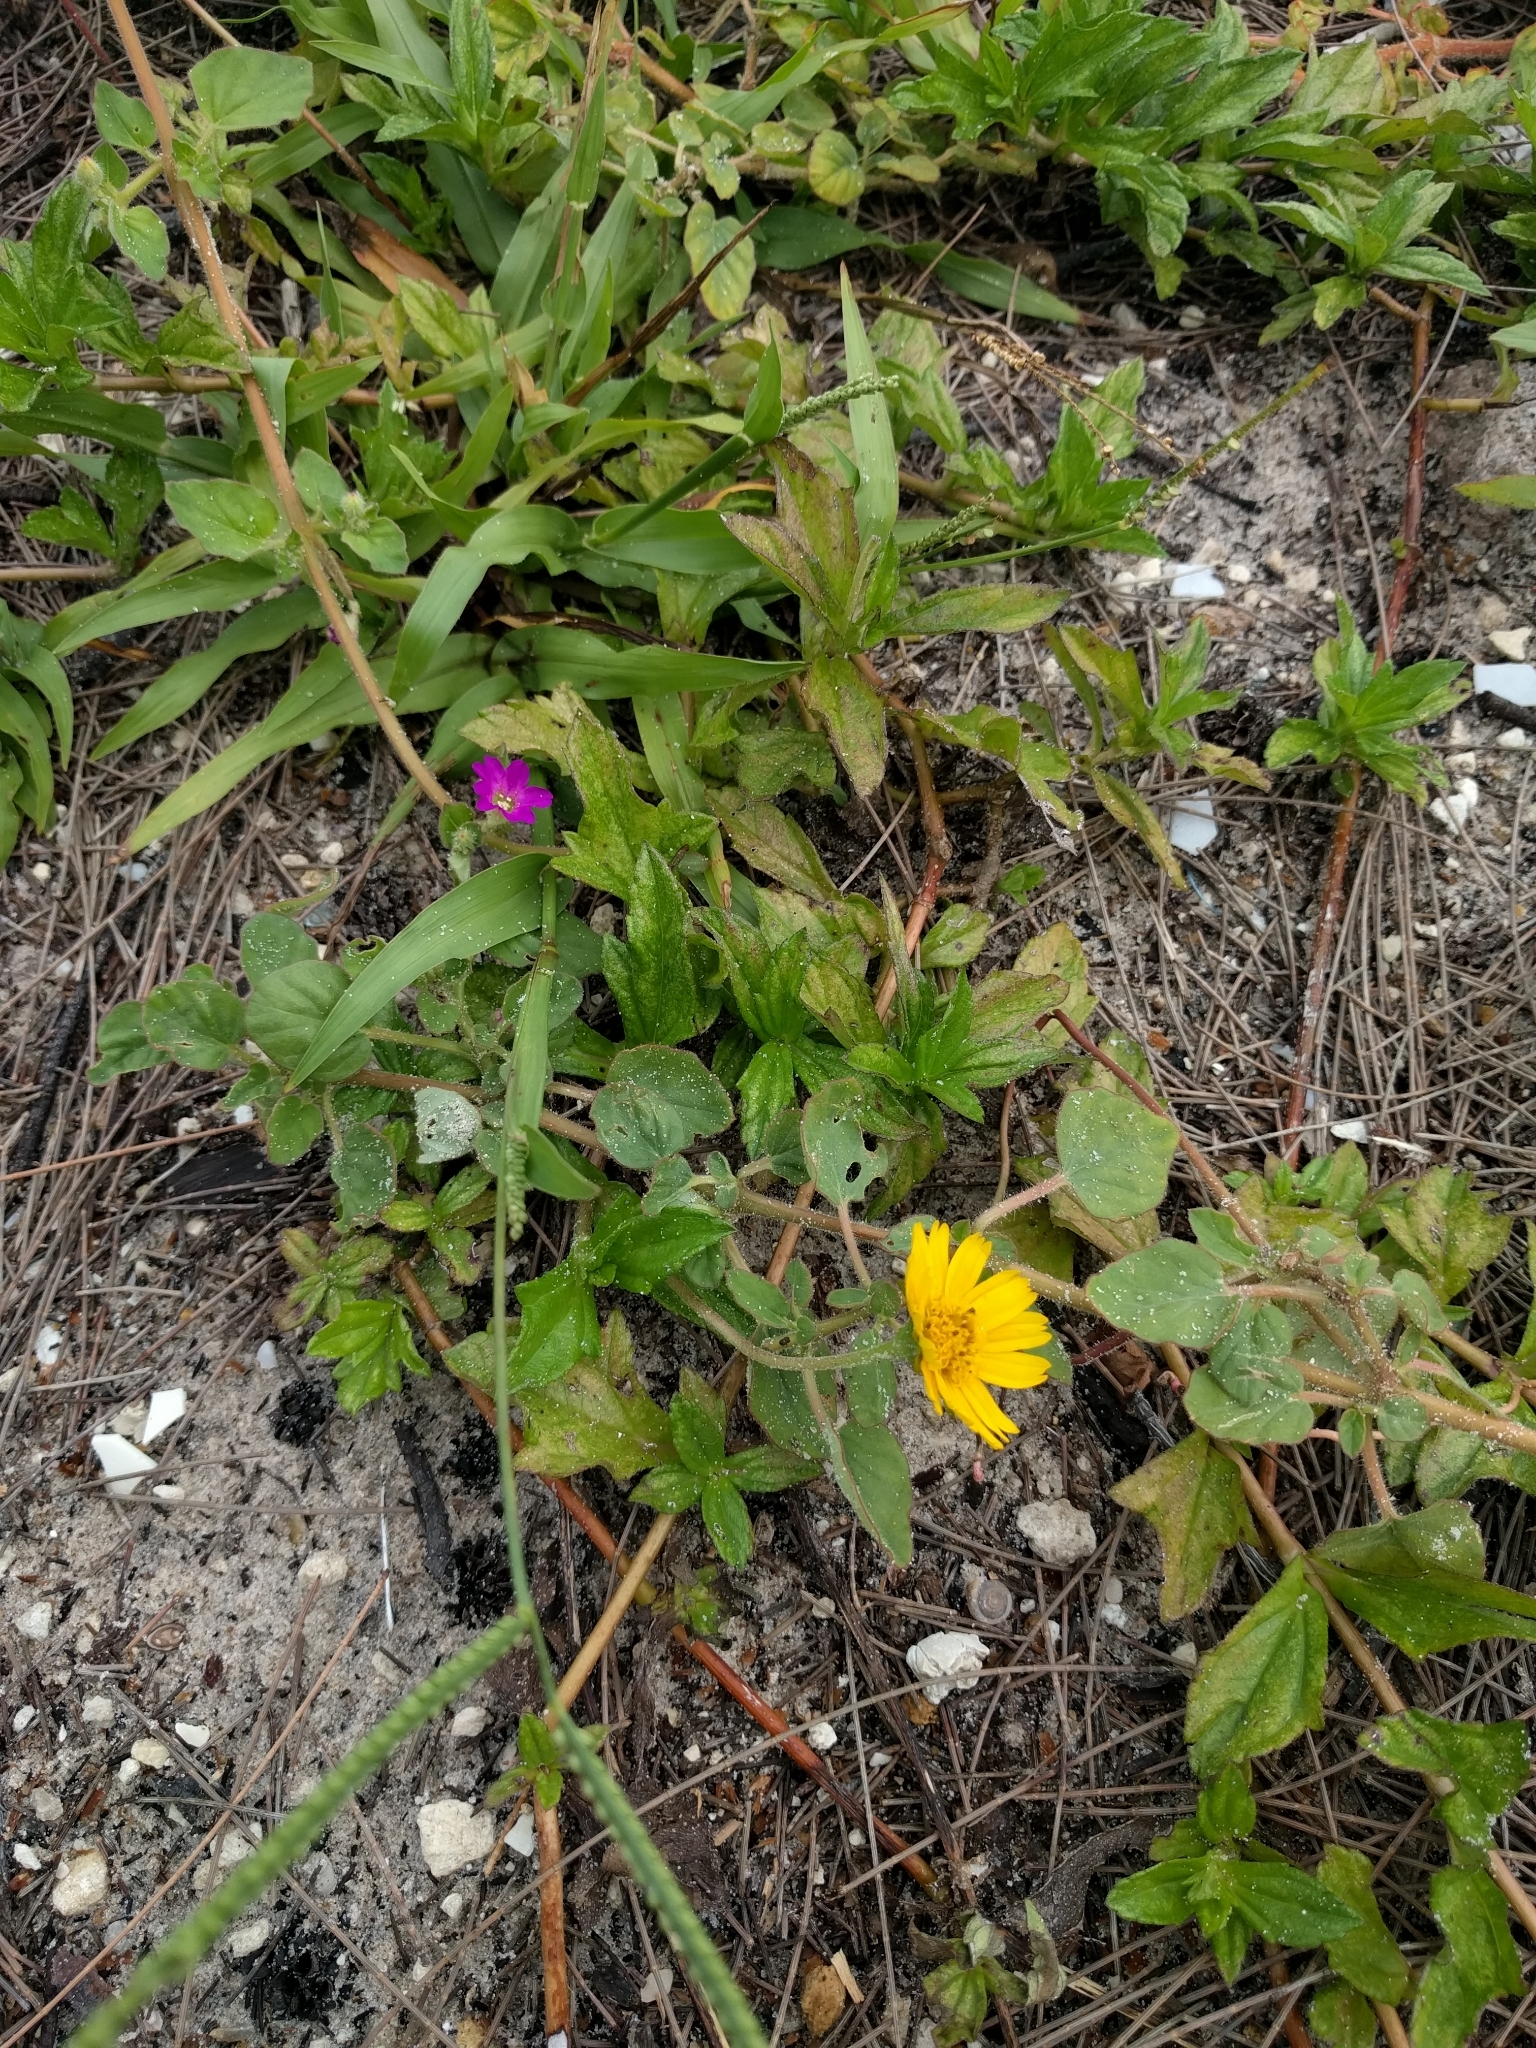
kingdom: Plantae
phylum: Tracheophyta
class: Magnoliopsida
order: Asterales
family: Asteraceae
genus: Sphagneticola
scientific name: Sphagneticola trilobata
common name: Bay biscayne creeping-oxeye
